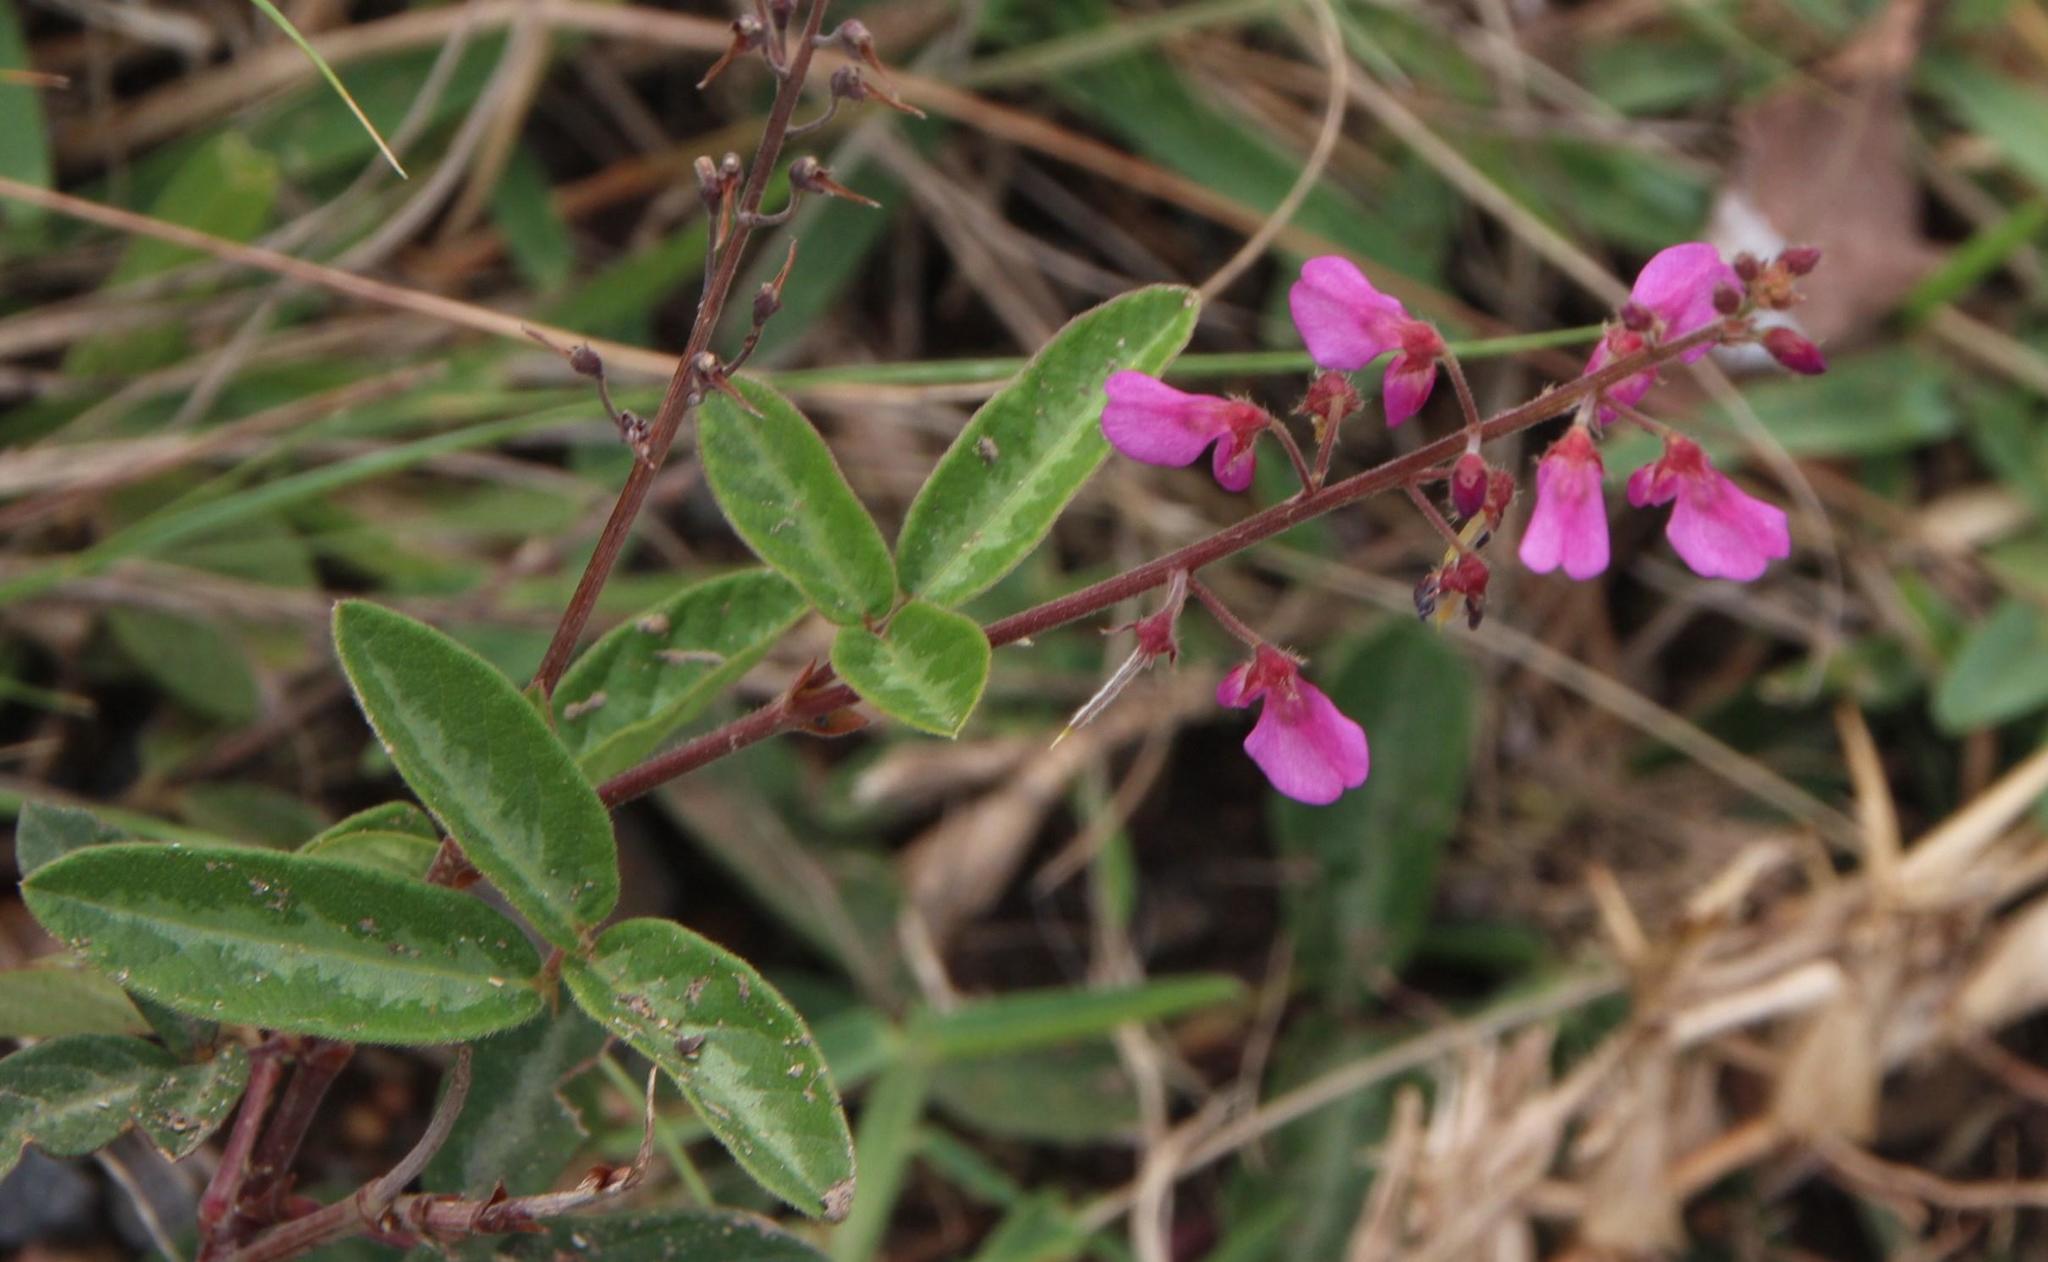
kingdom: Plantae
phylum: Tracheophyta
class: Magnoliopsida
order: Fabales
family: Fabaceae
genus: Desmodium
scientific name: Desmodium incanum
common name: Tickclover
